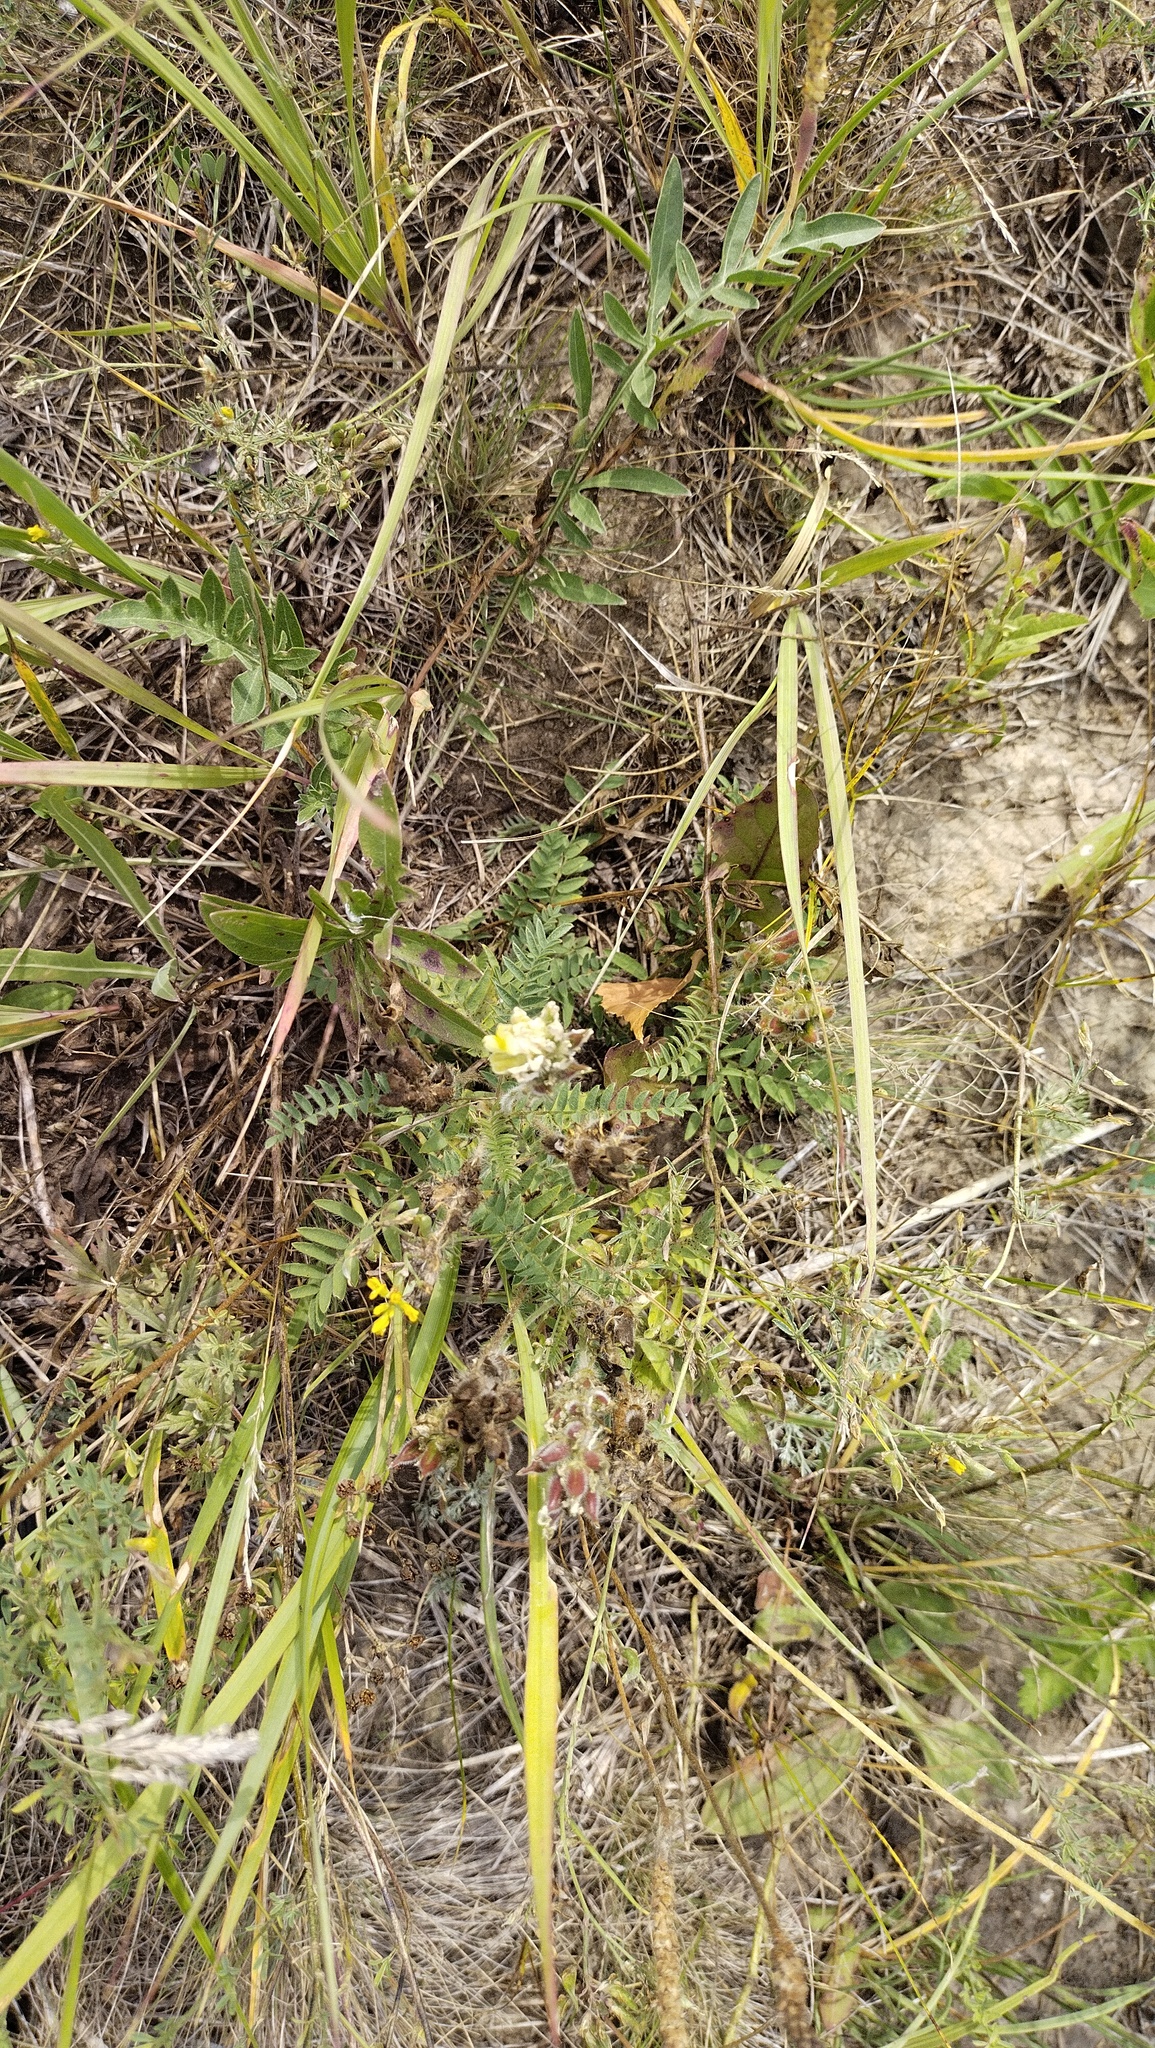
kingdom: Plantae
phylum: Tracheophyta
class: Magnoliopsida
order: Fabales
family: Fabaceae
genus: Oxytropis
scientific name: Oxytropis pilosa
